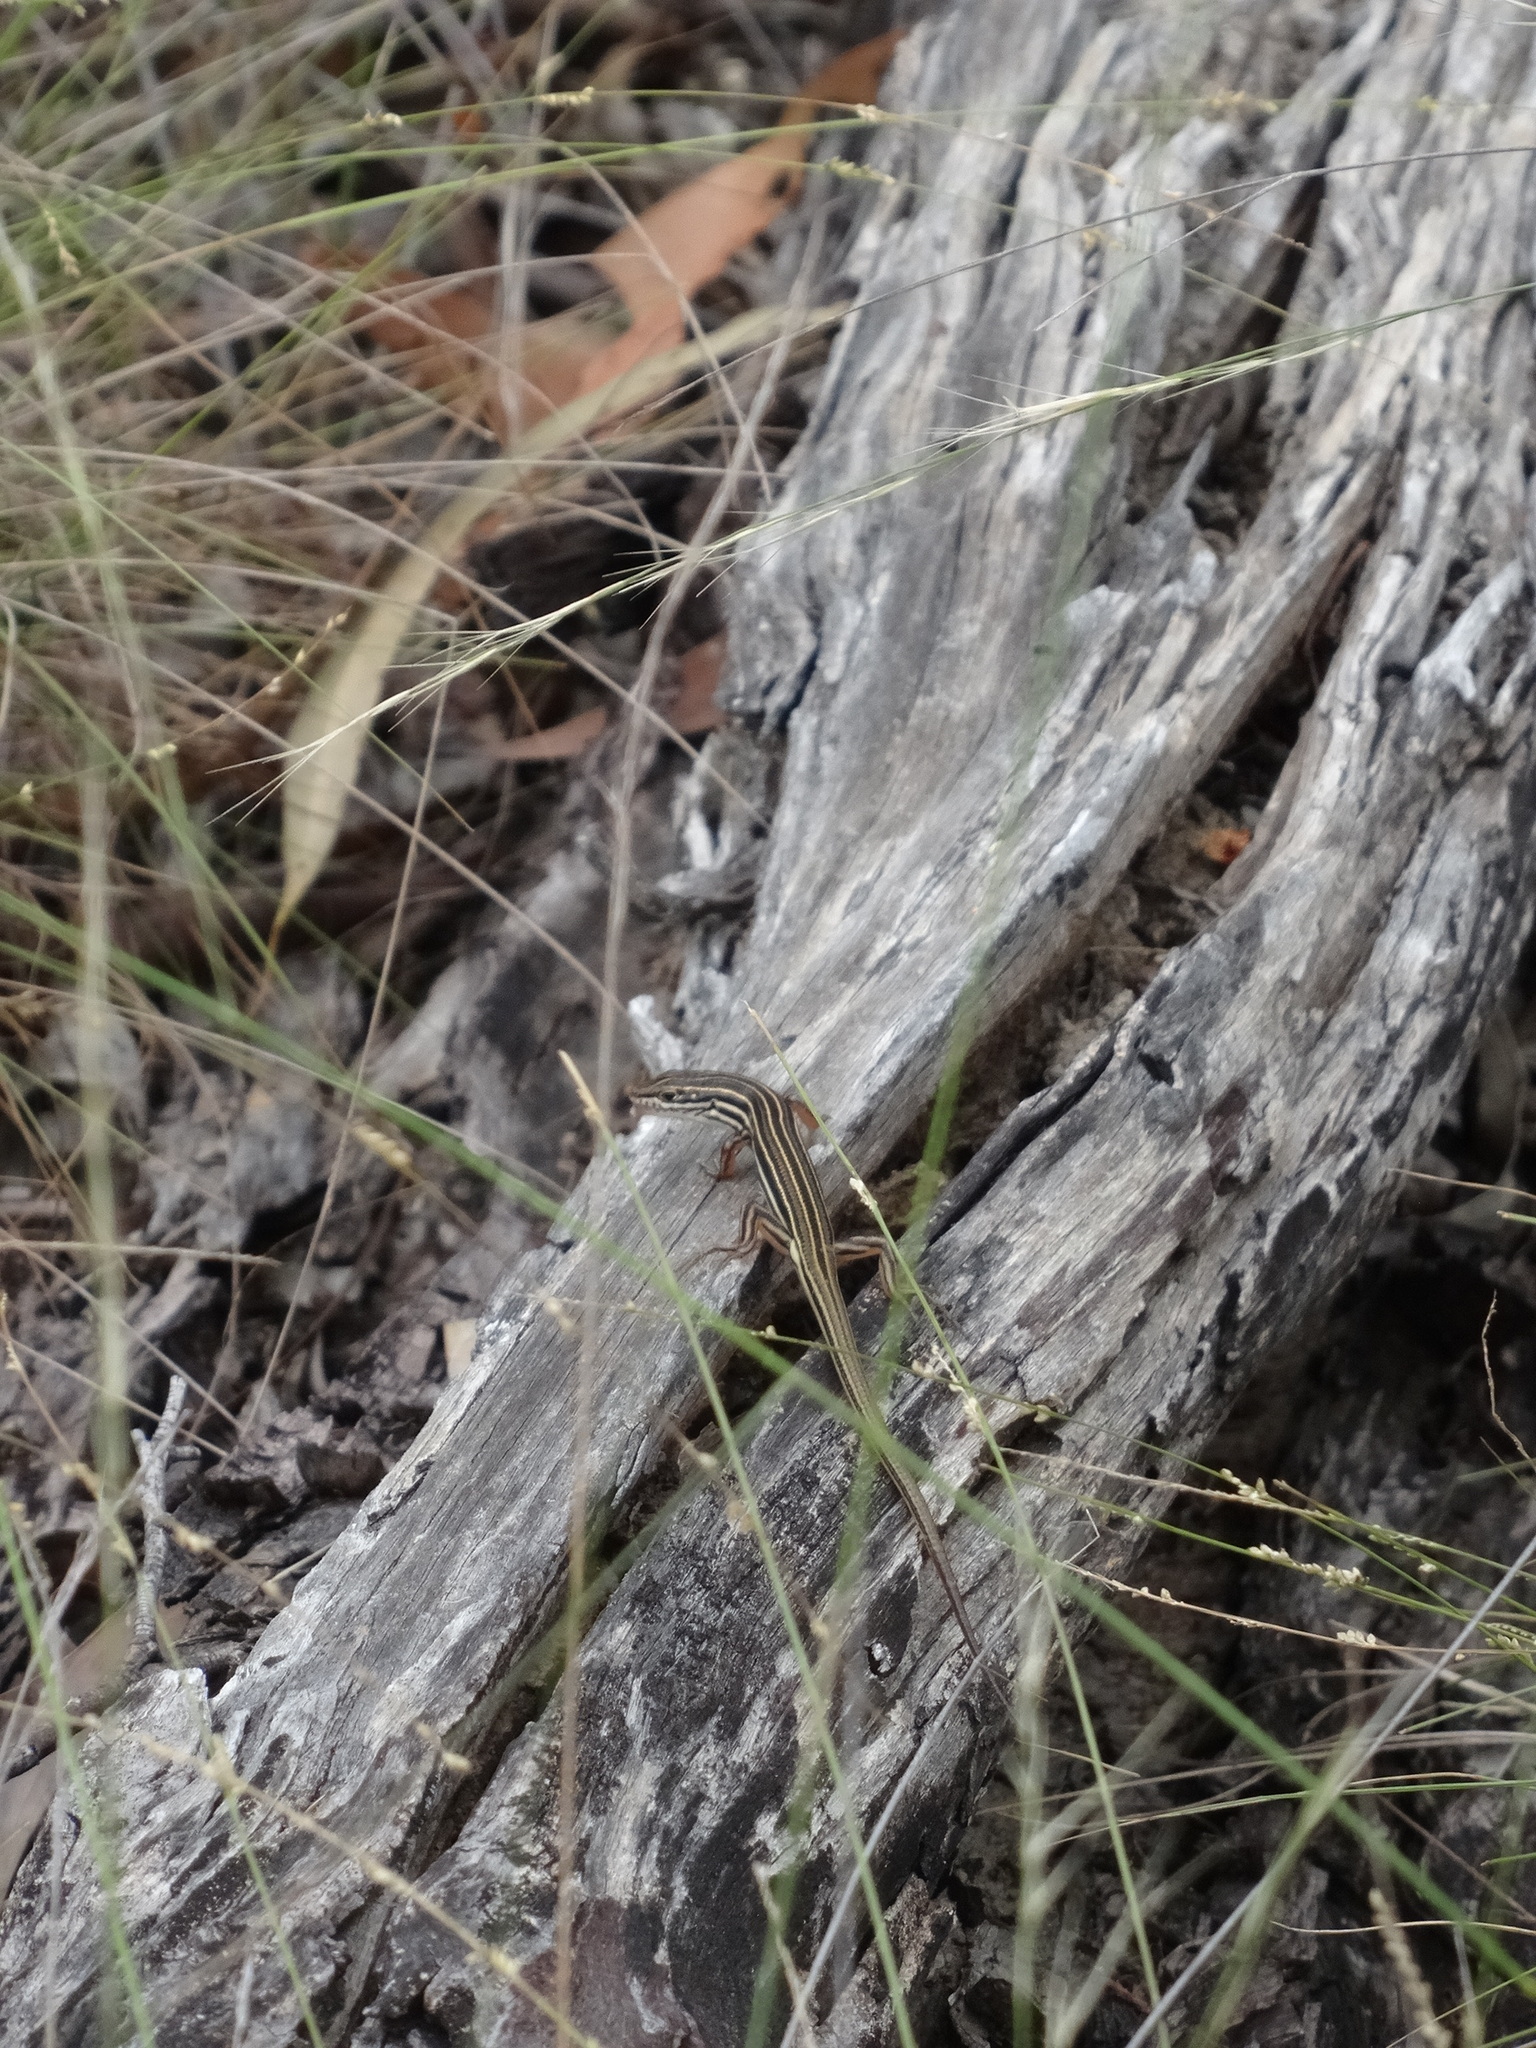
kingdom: Animalia
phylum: Chordata
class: Squamata
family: Scincidae
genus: Ctenotus
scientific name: Ctenotus taeniolatus
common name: Copper-tailed skink
